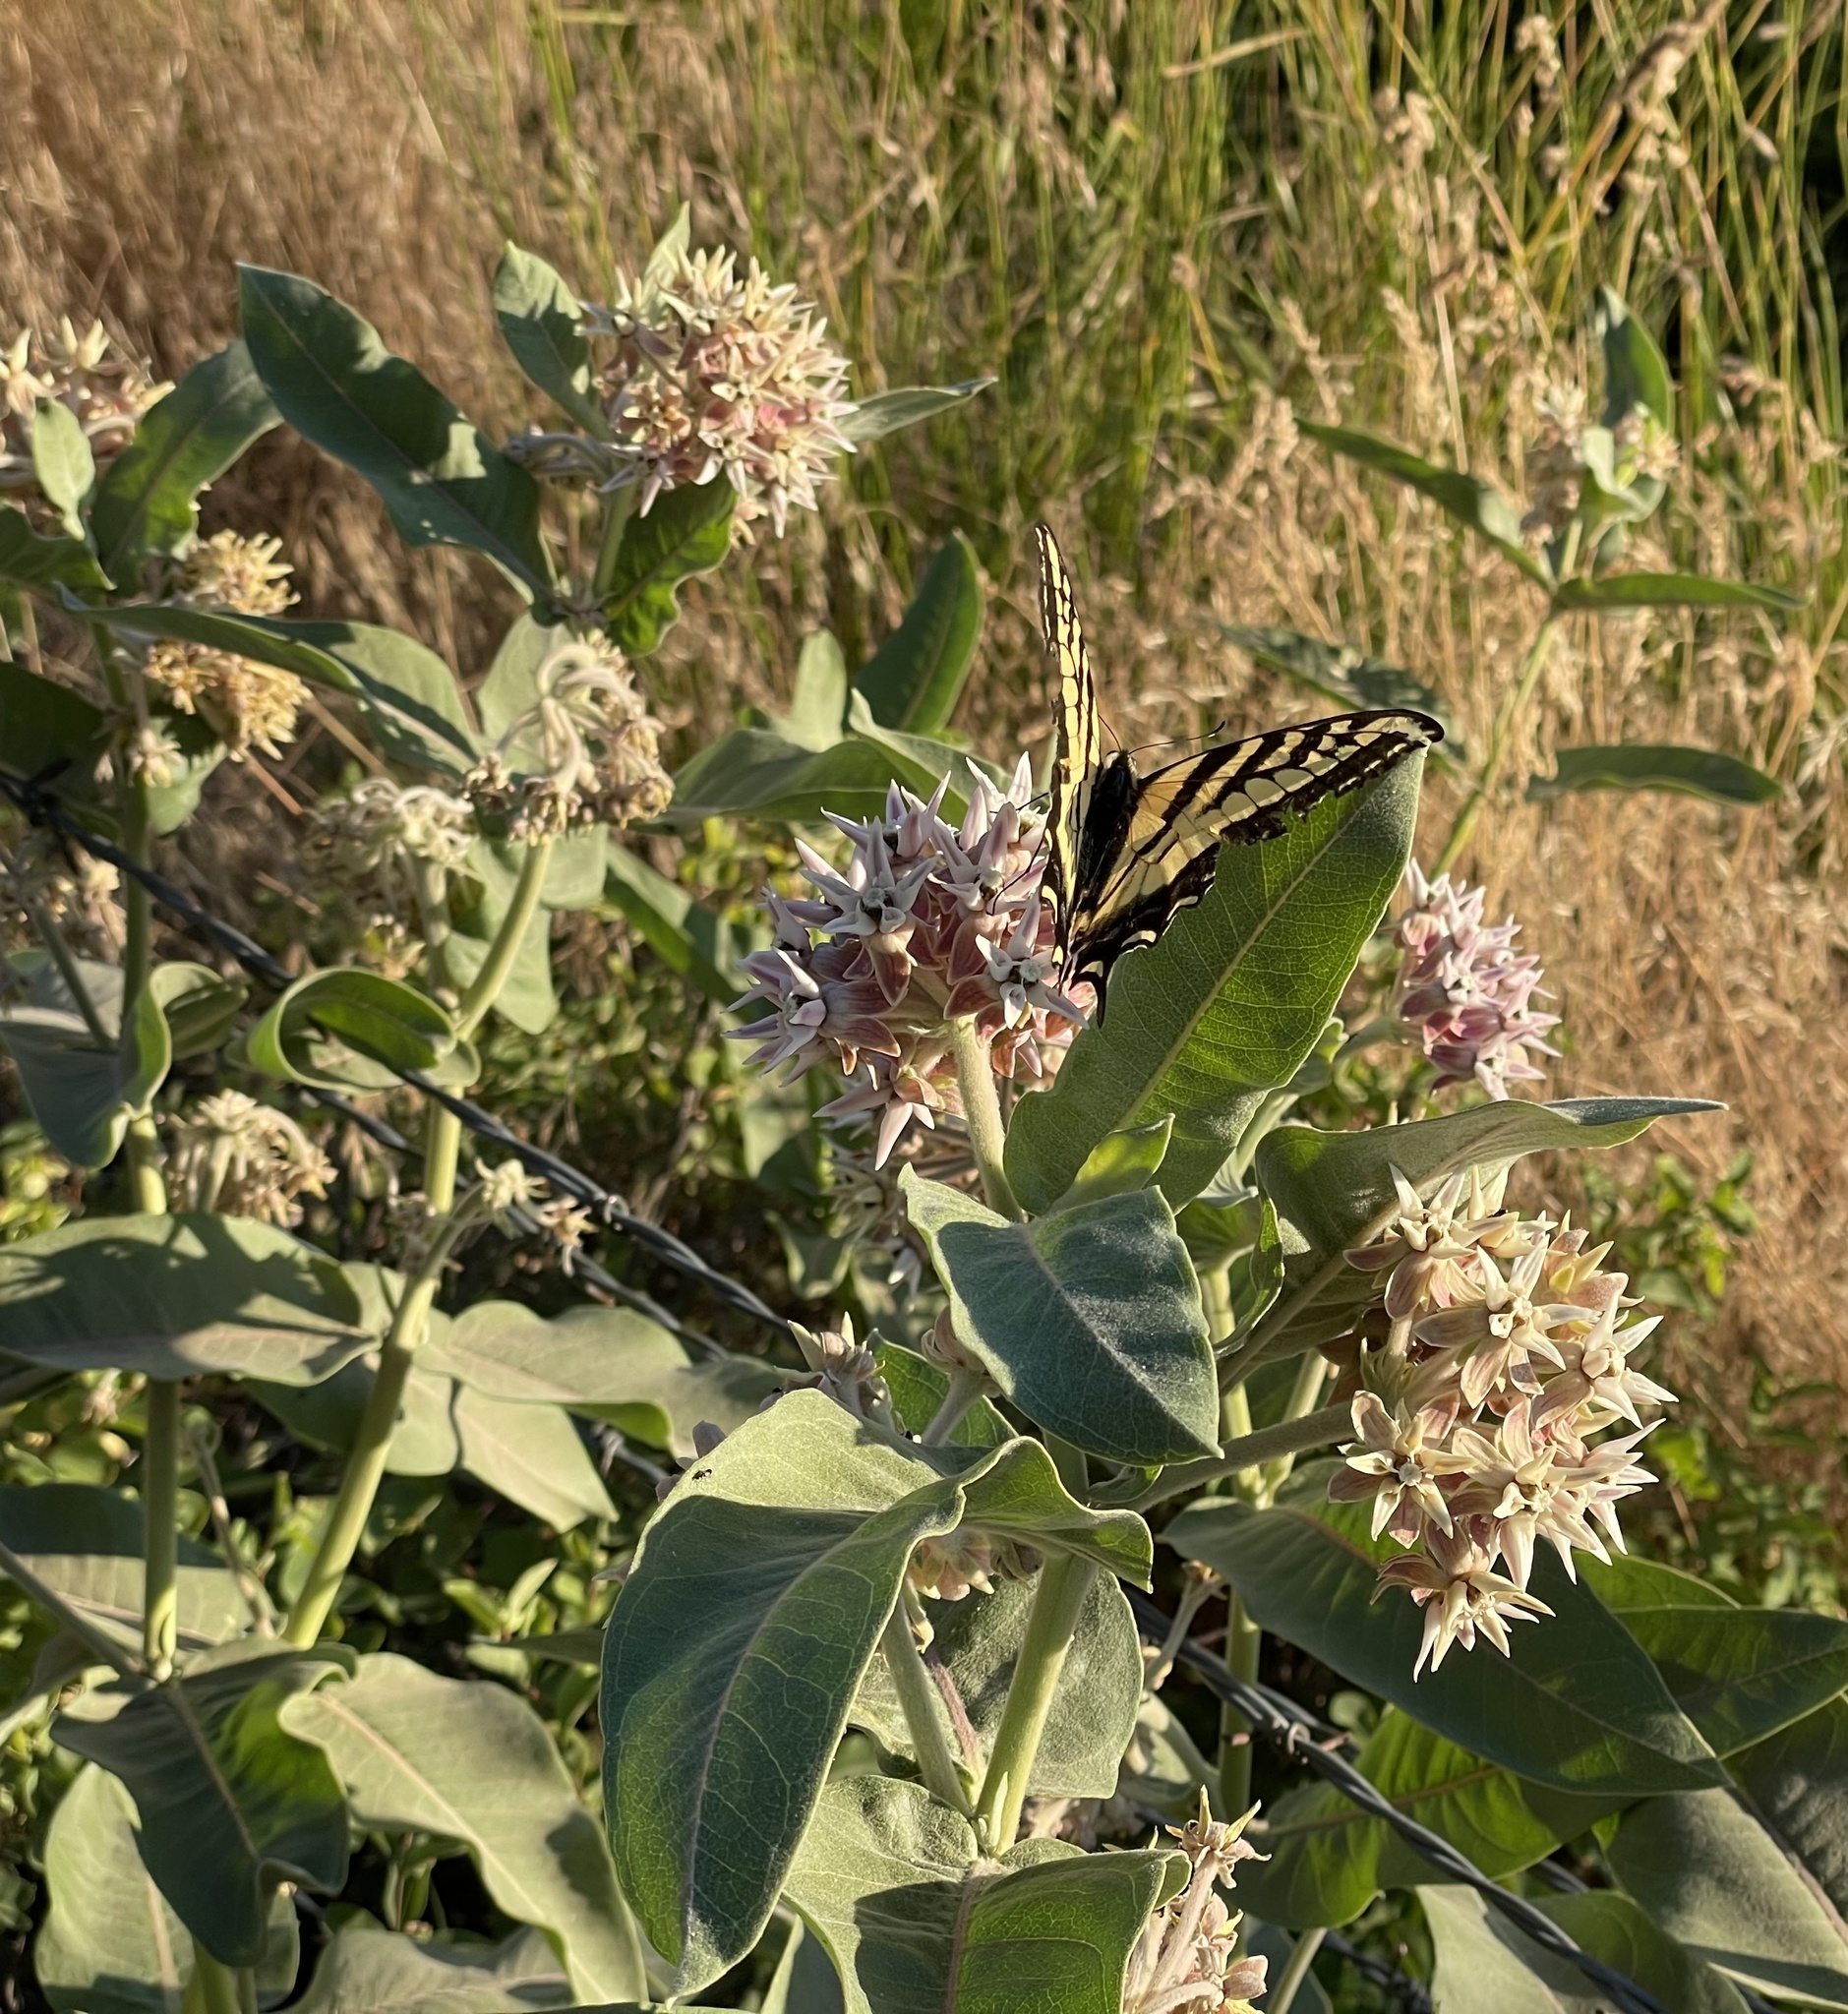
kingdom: Plantae
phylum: Tracheophyta
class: Magnoliopsida
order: Gentianales
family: Apocynaceae
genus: Asclepias
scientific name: Asclepias speciosa
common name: Showy milkweed
